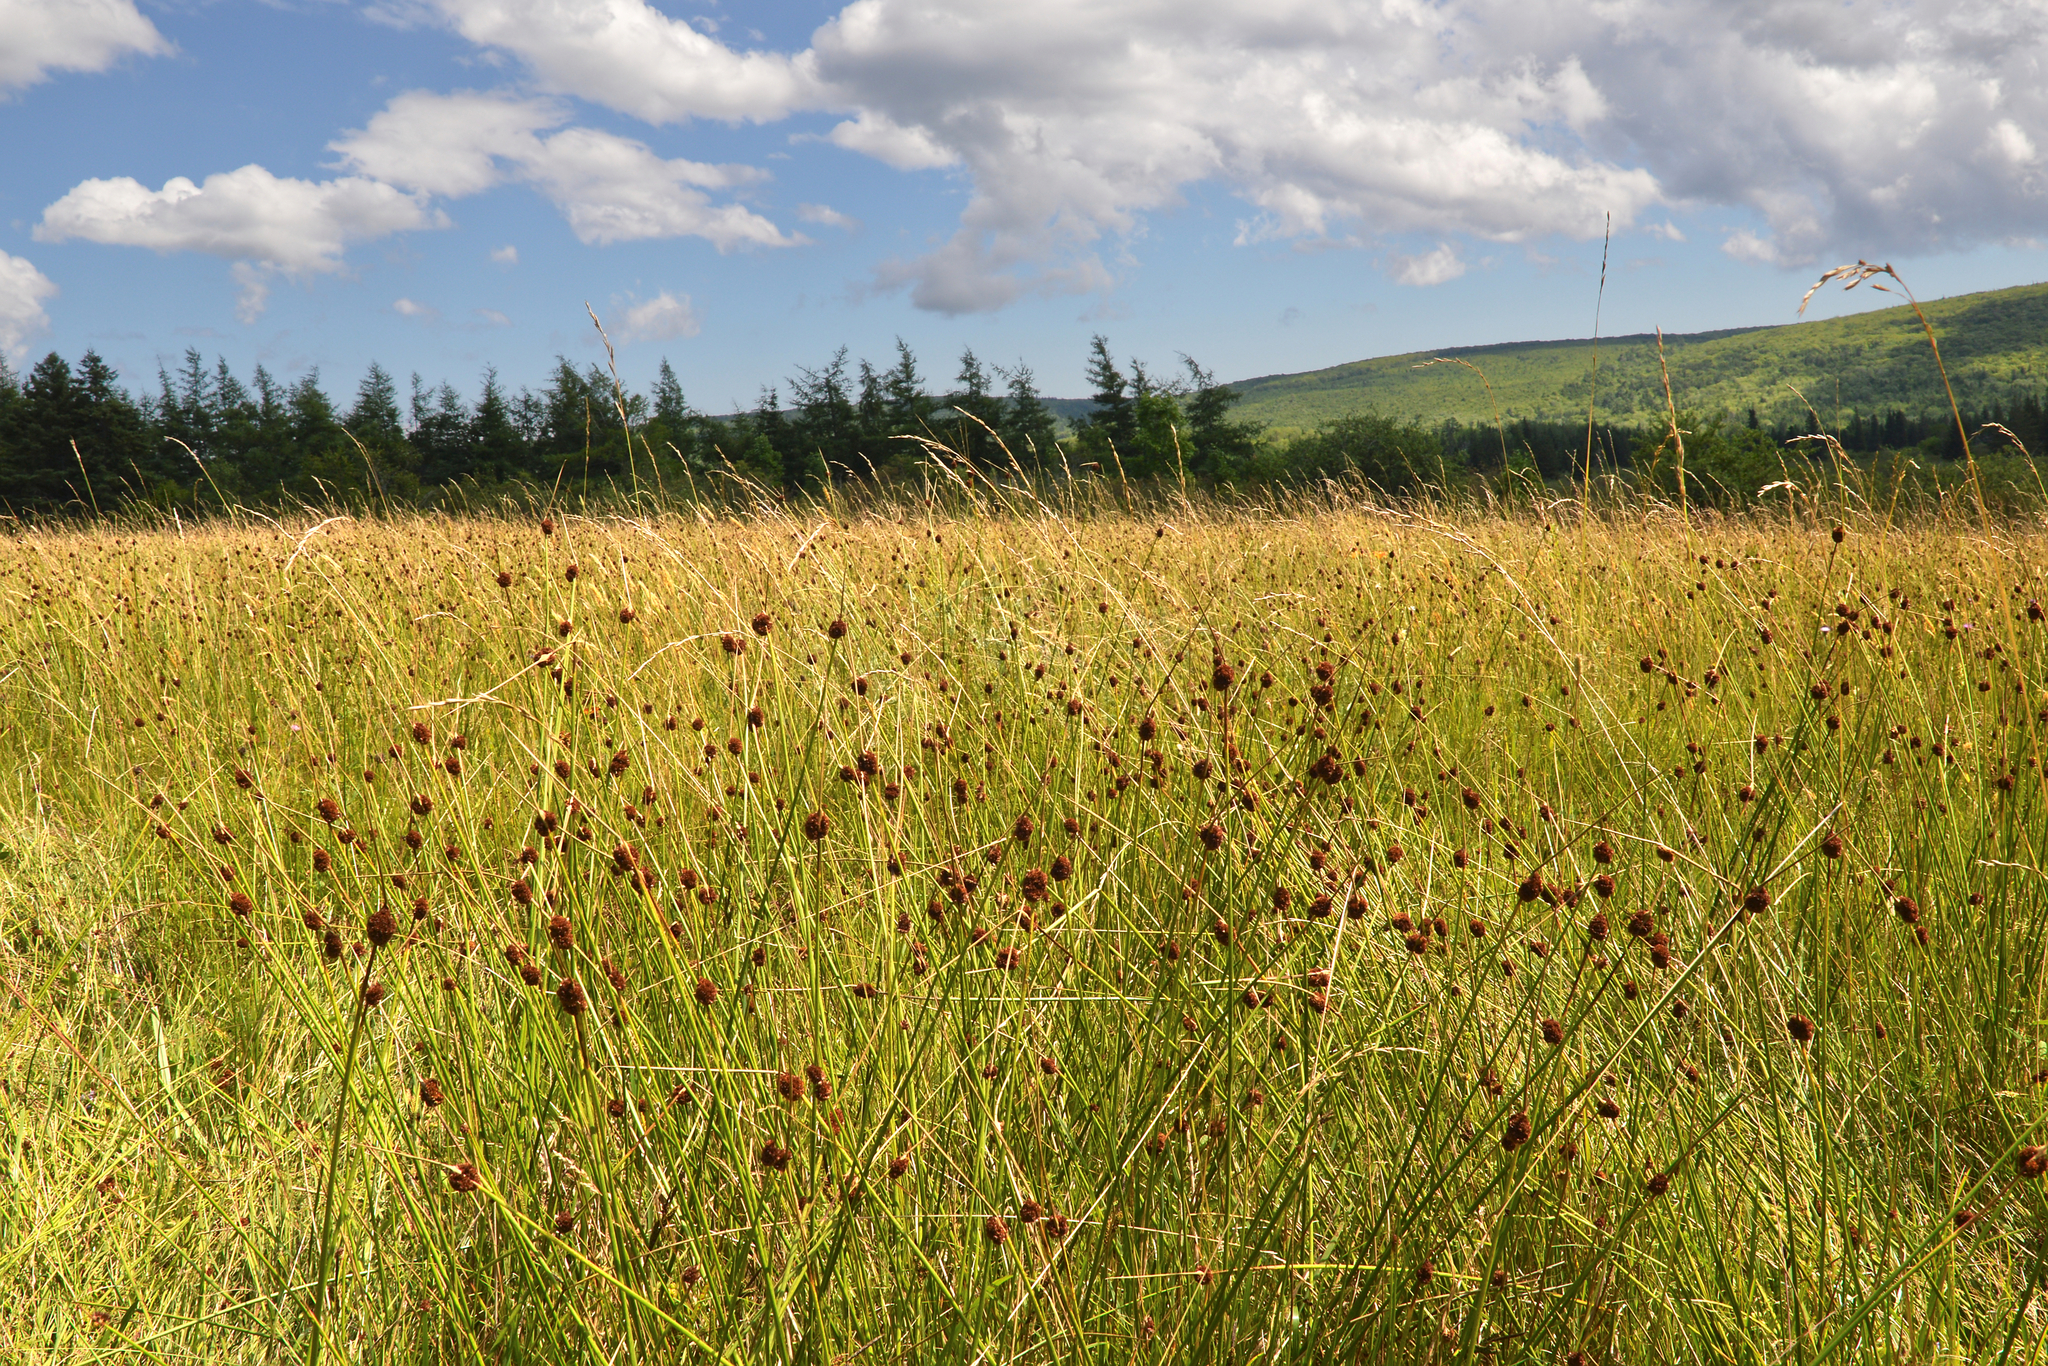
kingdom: Plantae
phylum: Tracheophyta
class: Liliopsida
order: Poales
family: Juncaceae
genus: Juncus
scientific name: Juncus conglomeratus
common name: Compact rush
